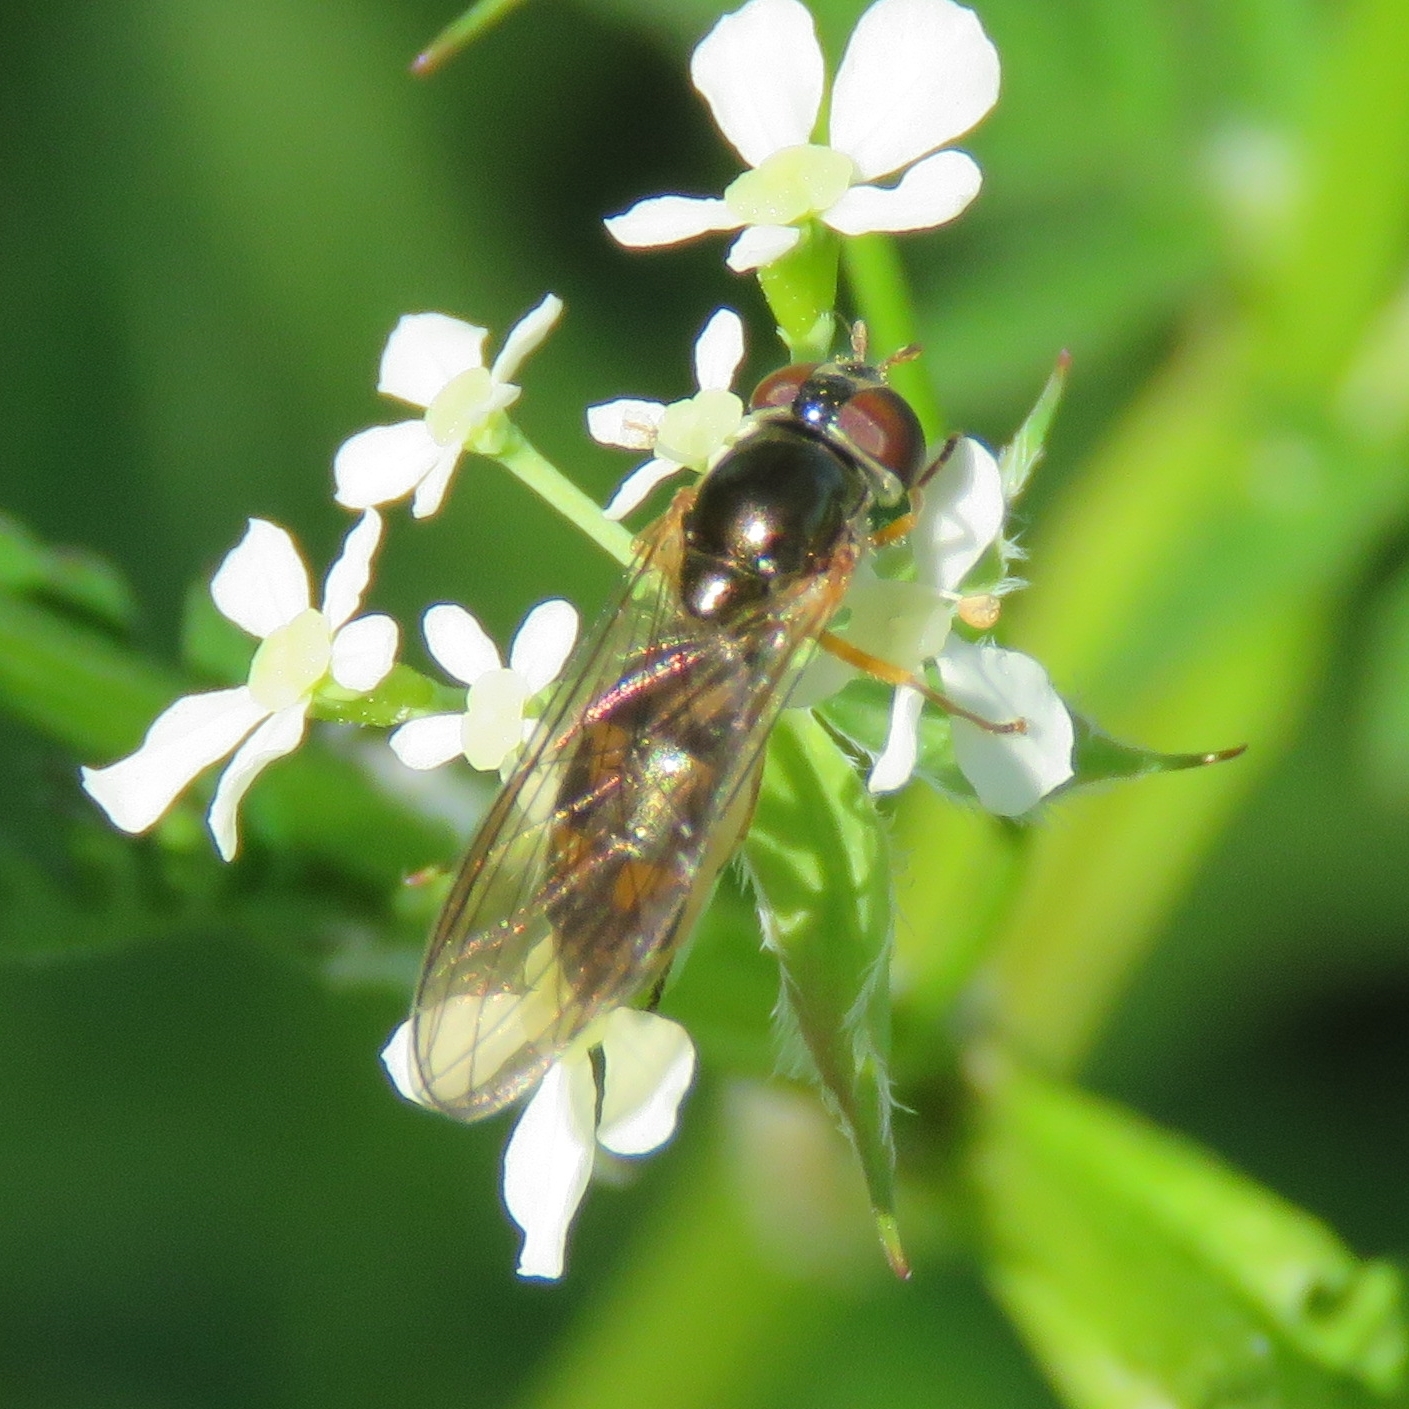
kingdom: Animalia
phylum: Arthropoda
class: Insecta
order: Diptera
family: Syrphidae
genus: Melanostoma
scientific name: Melanostoma scalare
